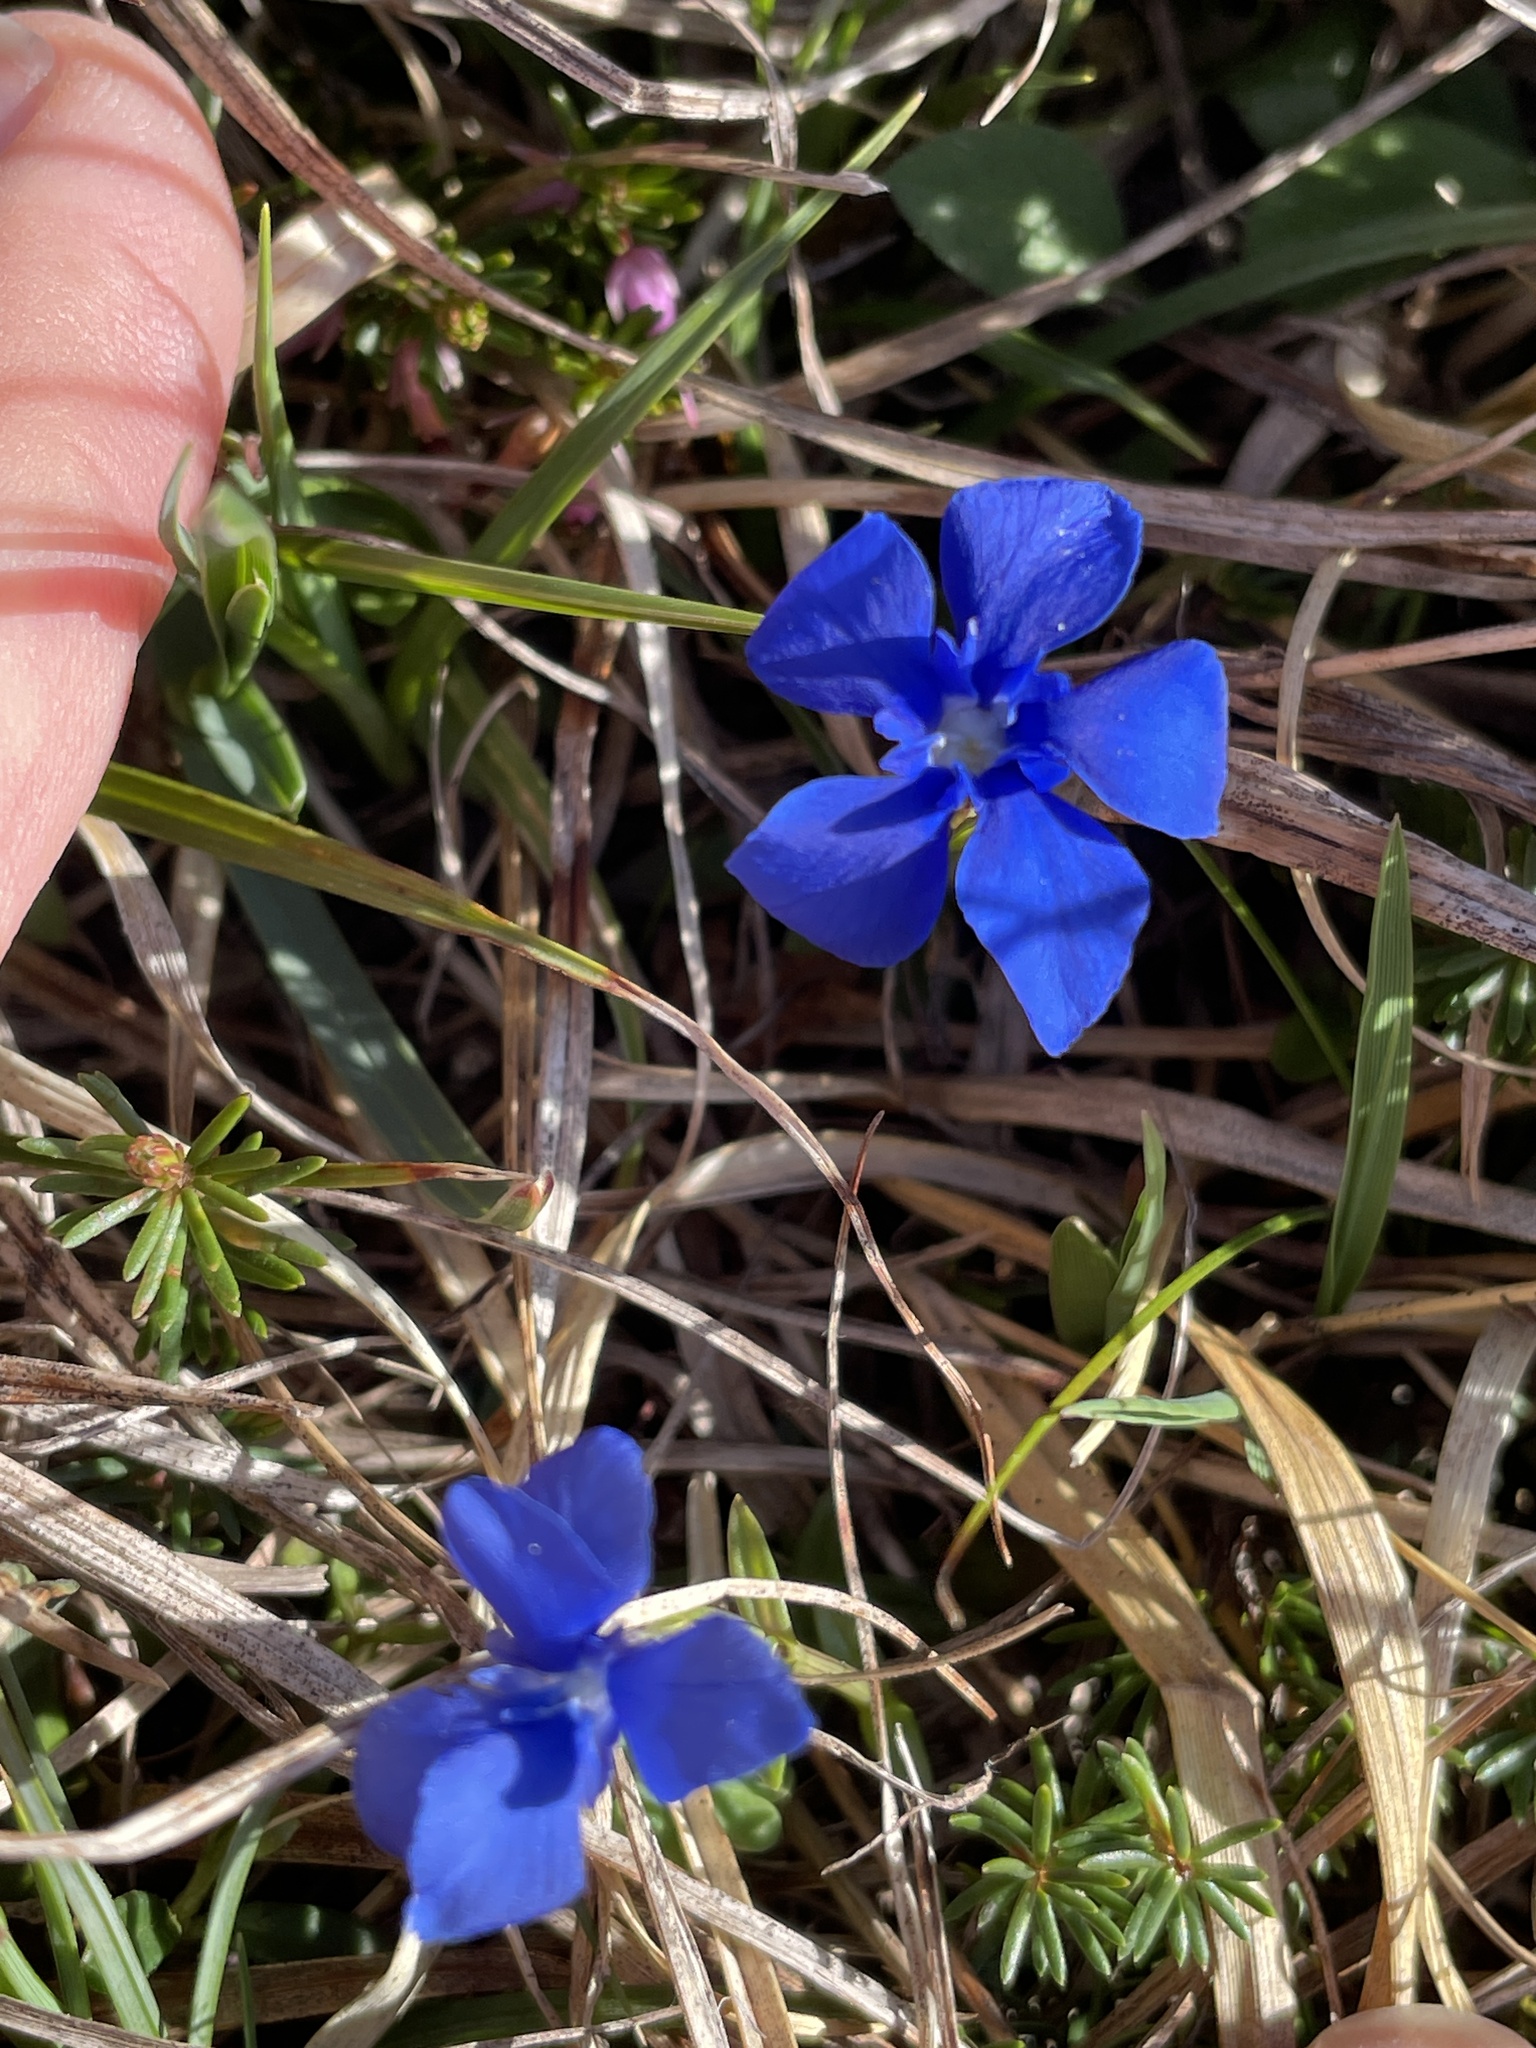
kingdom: Plantae
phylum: Tracheophyta
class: Magnoliopsida
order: Gentianales
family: Gentianaceae
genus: Gentiana
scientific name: Gentiana verna
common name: Spring gentian
